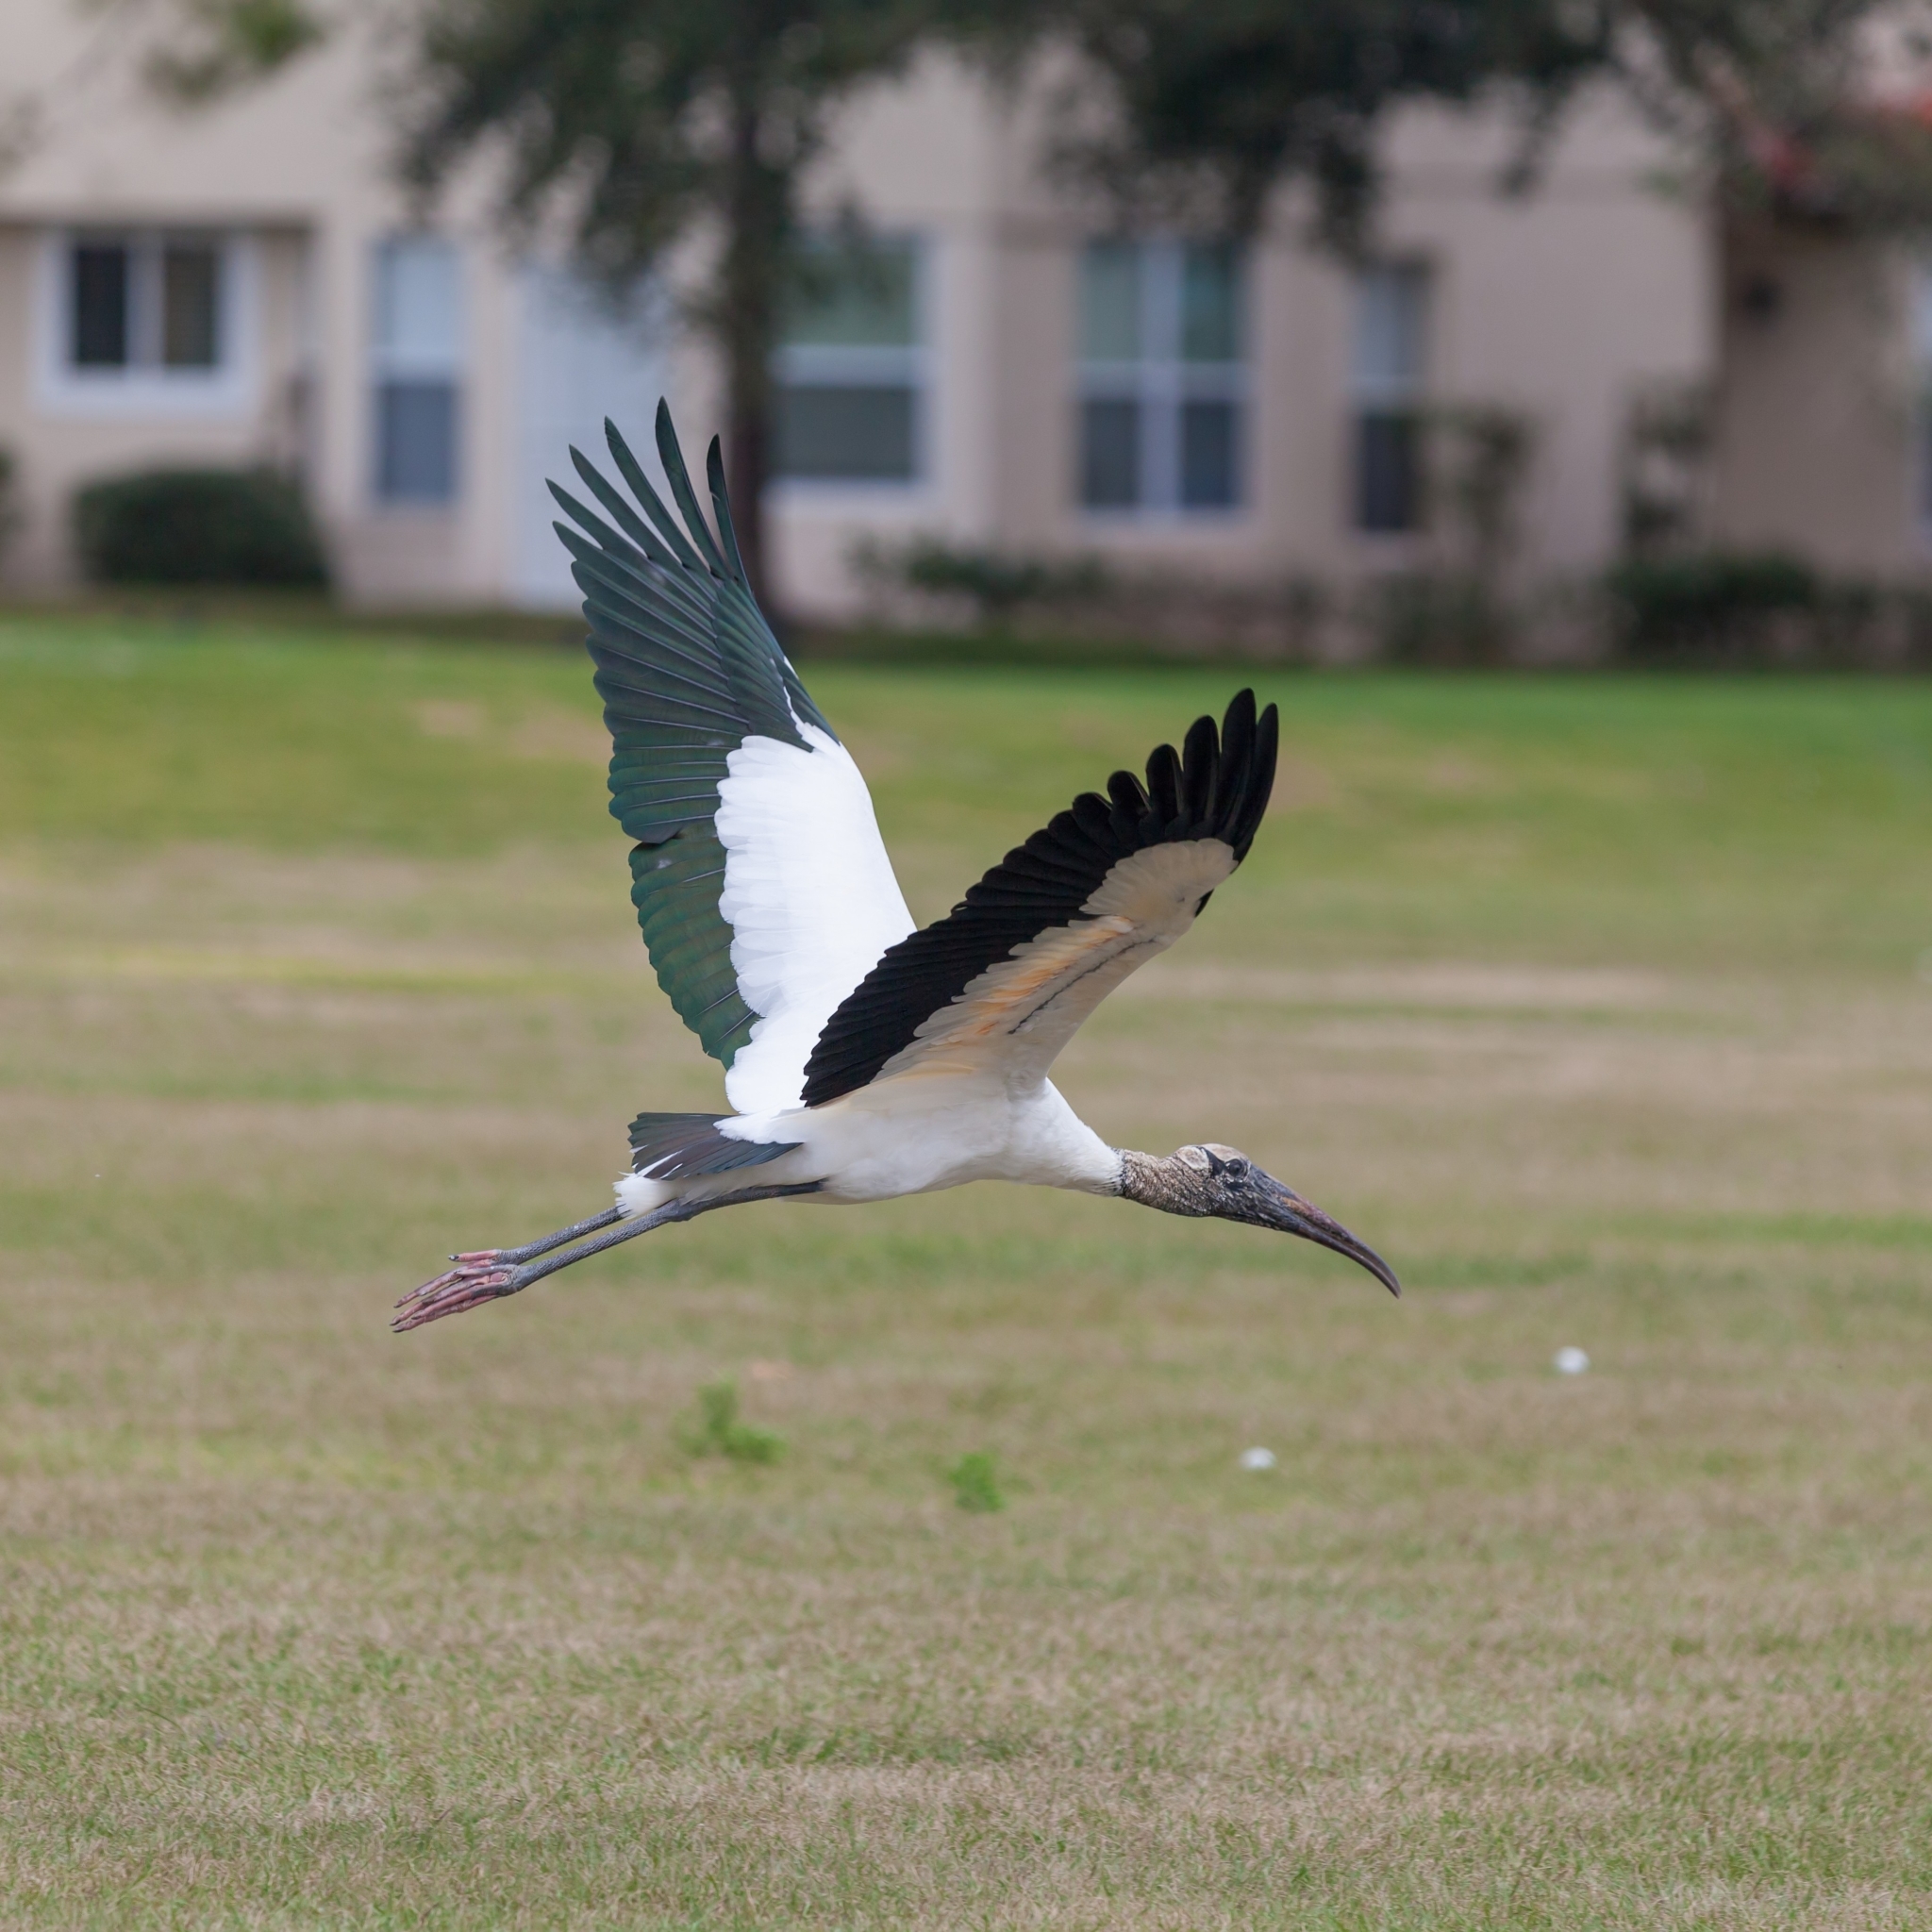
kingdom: Animalia
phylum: Chordata
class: Aves
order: Ciconiiformes
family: Ciconiidae
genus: Mycteria
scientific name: Mycteria americana
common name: Wood stork
